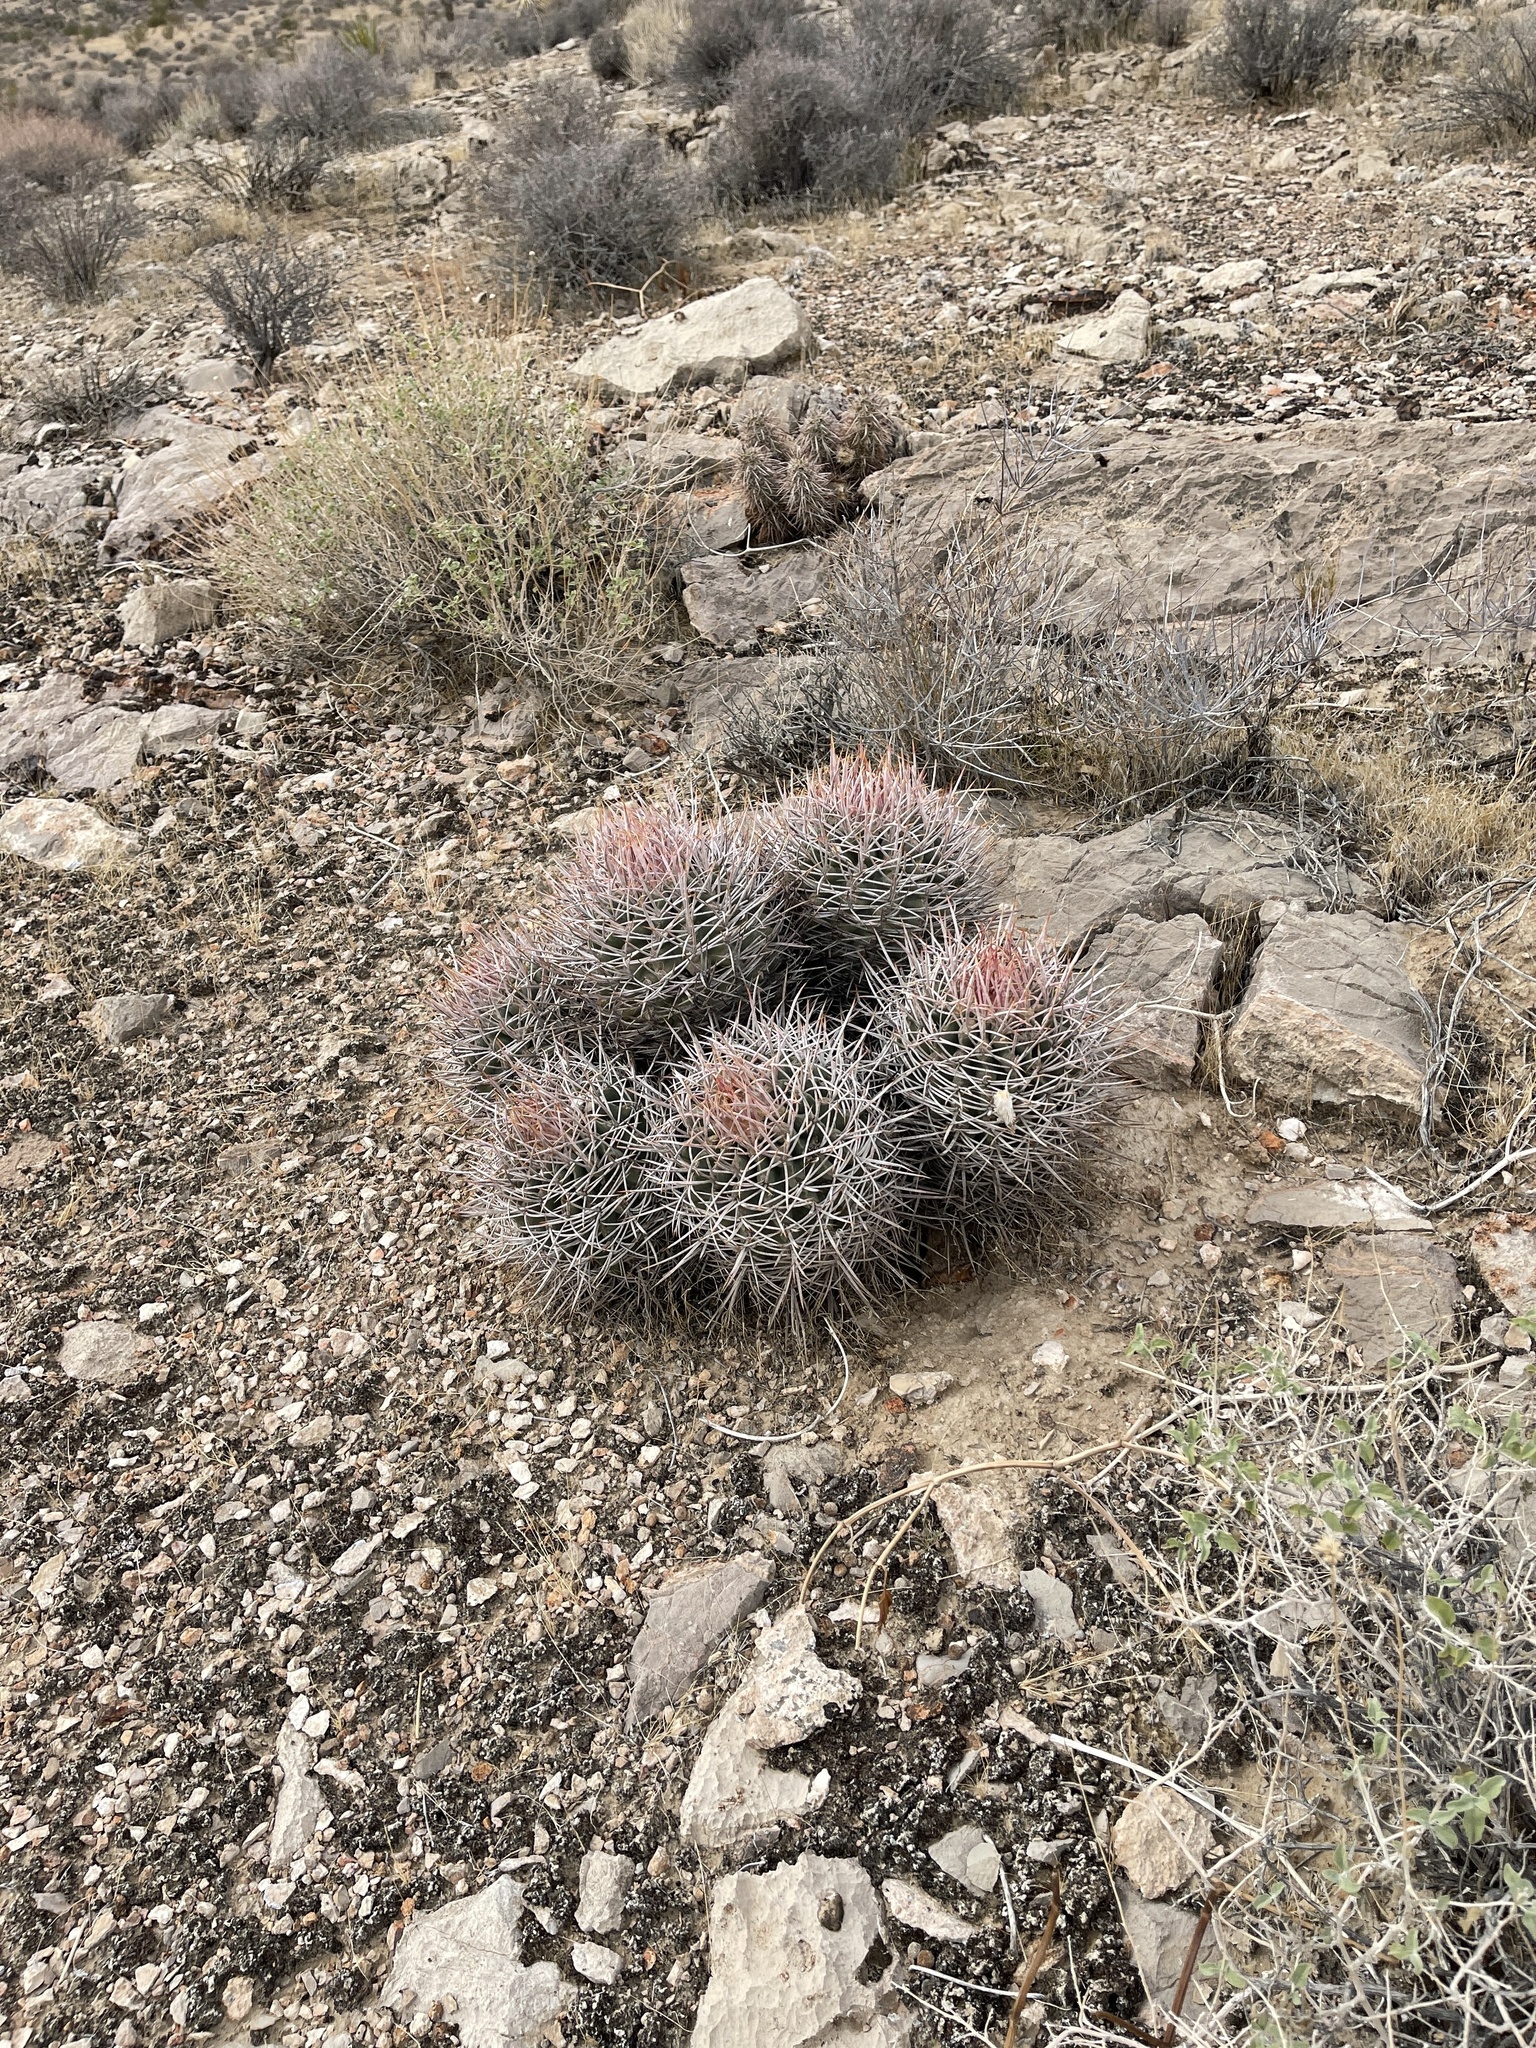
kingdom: Plantae
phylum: Tracheophyta
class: Magnoliopsida
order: Caryophyllales
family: Cactaceae
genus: Echinocactus
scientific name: Echinocactus polycephalus
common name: Cottontop cactus
